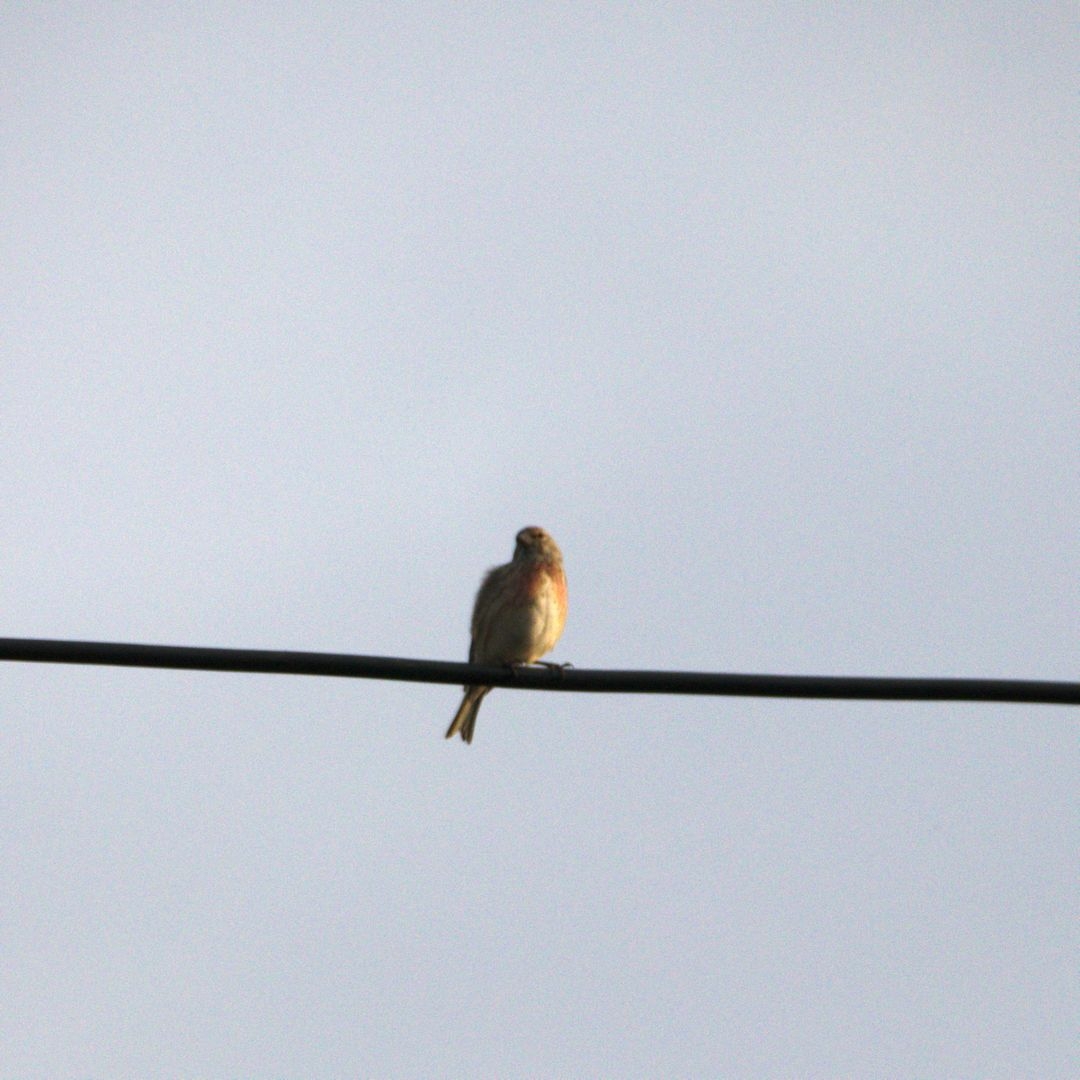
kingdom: Animalia
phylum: Chordata
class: Aves
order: Passeriformes
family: Fringillidae
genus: Linaria
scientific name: Linaria cannabina
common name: Common linnet
